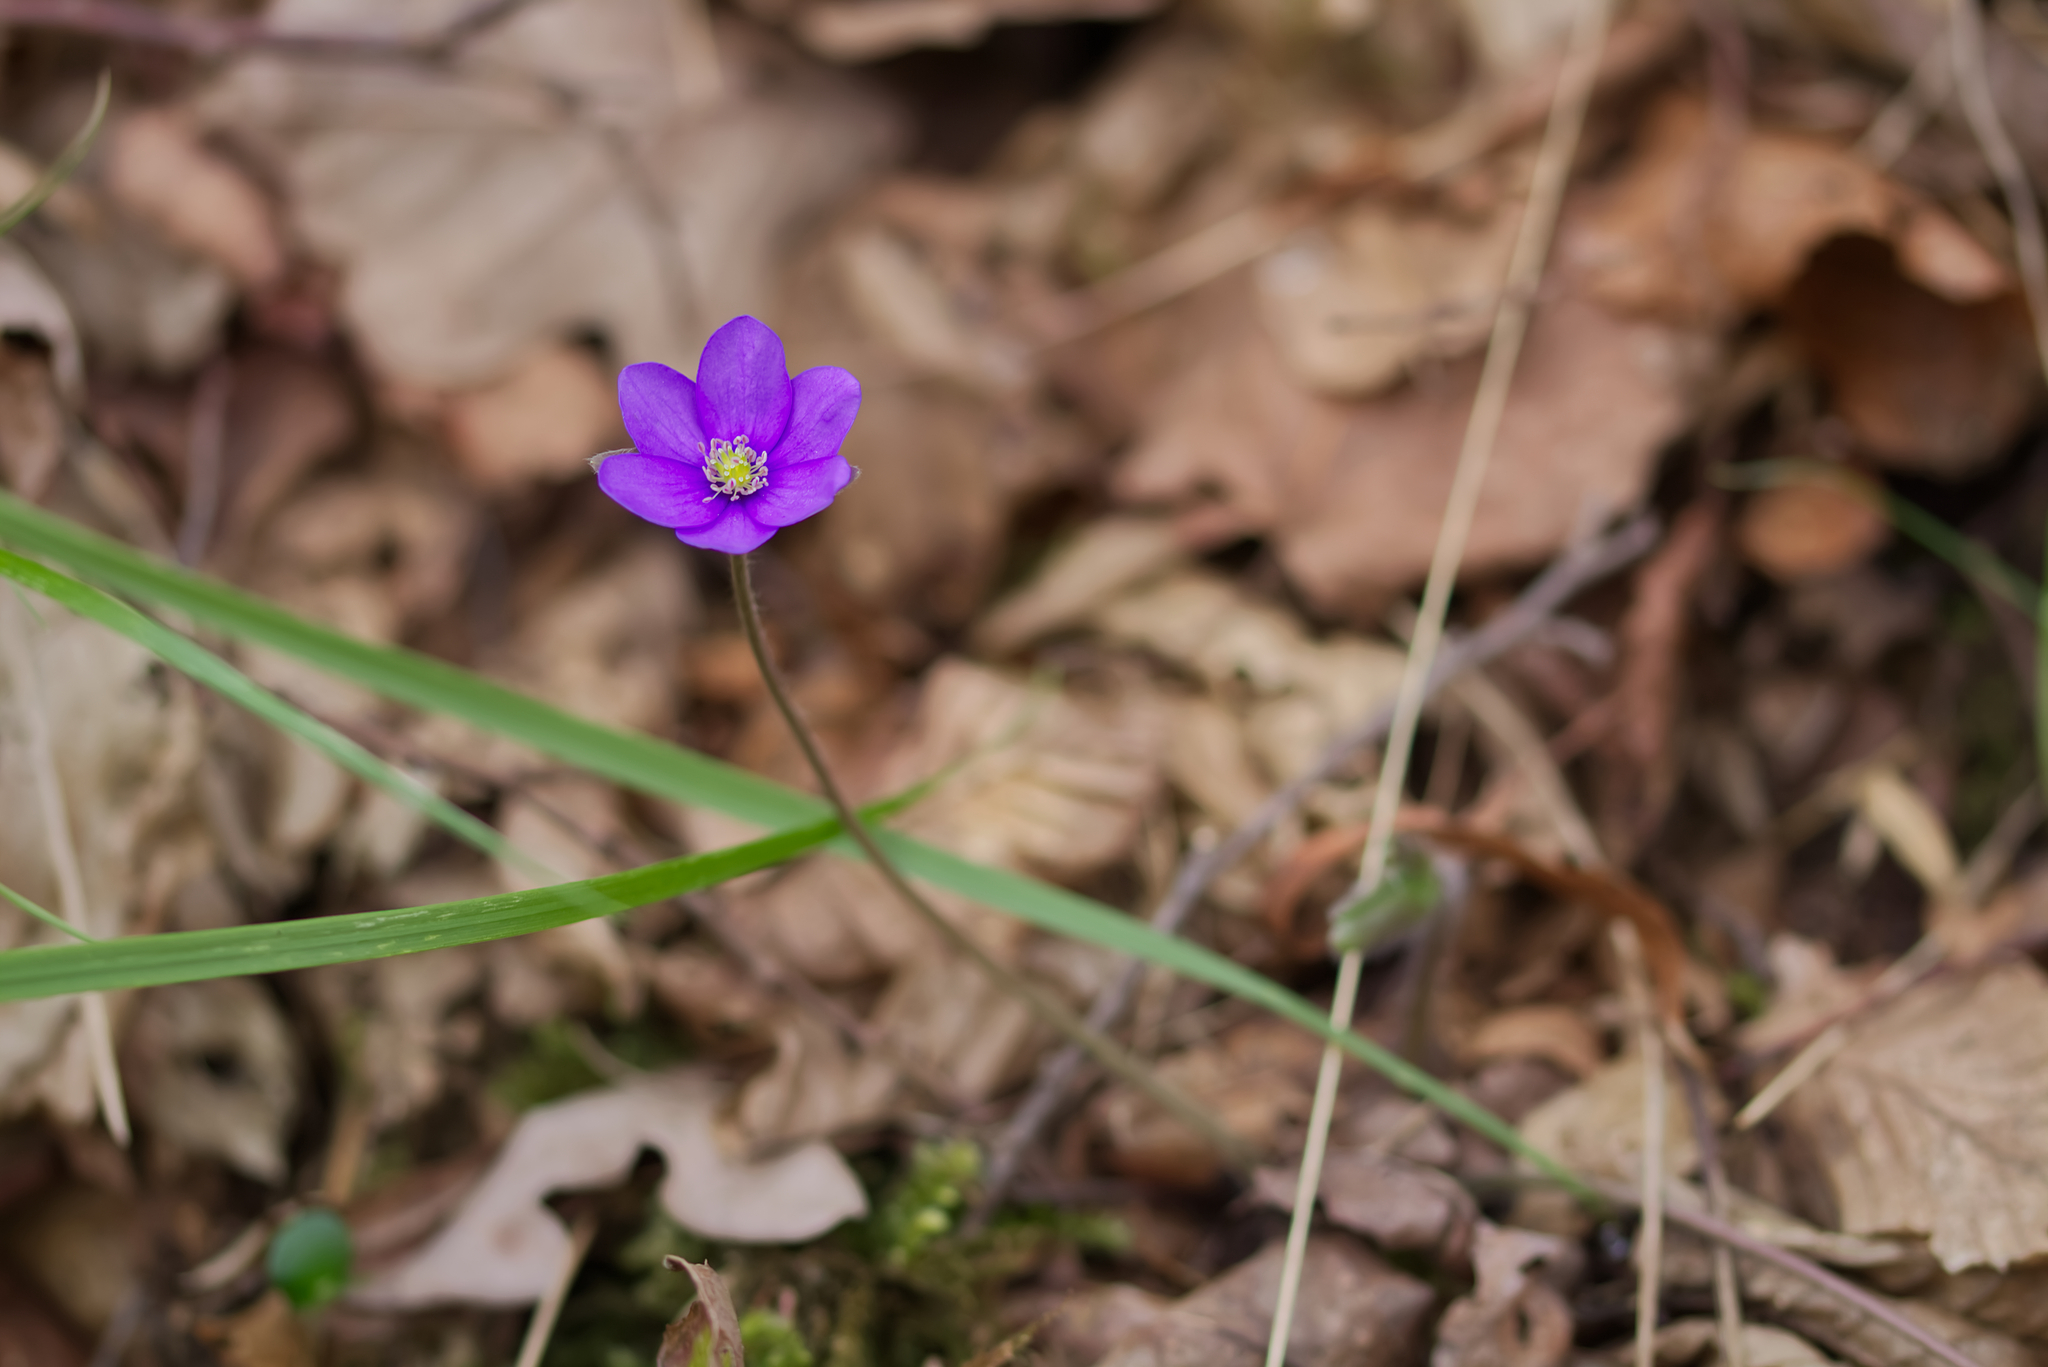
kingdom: Plantae
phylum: Tracheophyta
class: Magnoliopsida
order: Ranunculales
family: Ranunculaceae
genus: Hepatica
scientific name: Hepatica nobilis
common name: Liverleaf
